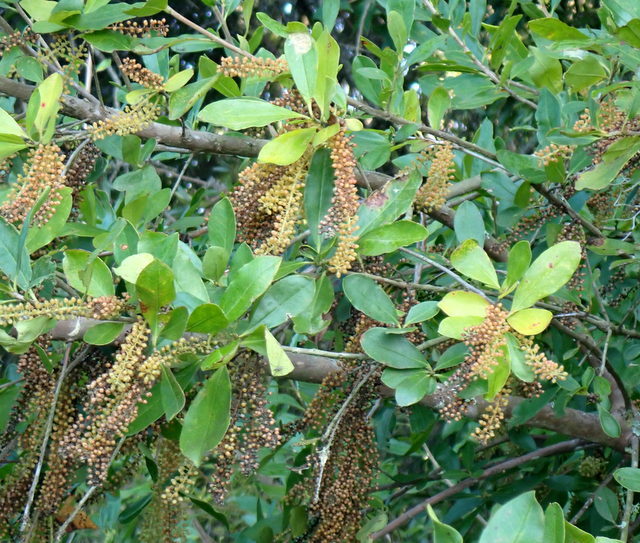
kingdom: Plantae
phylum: Tracheophyta
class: Magnoliopsida
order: Ericales
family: Cyrillaceae
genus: Cyrilla
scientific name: Cyrilla racemiflora
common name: Black titi
